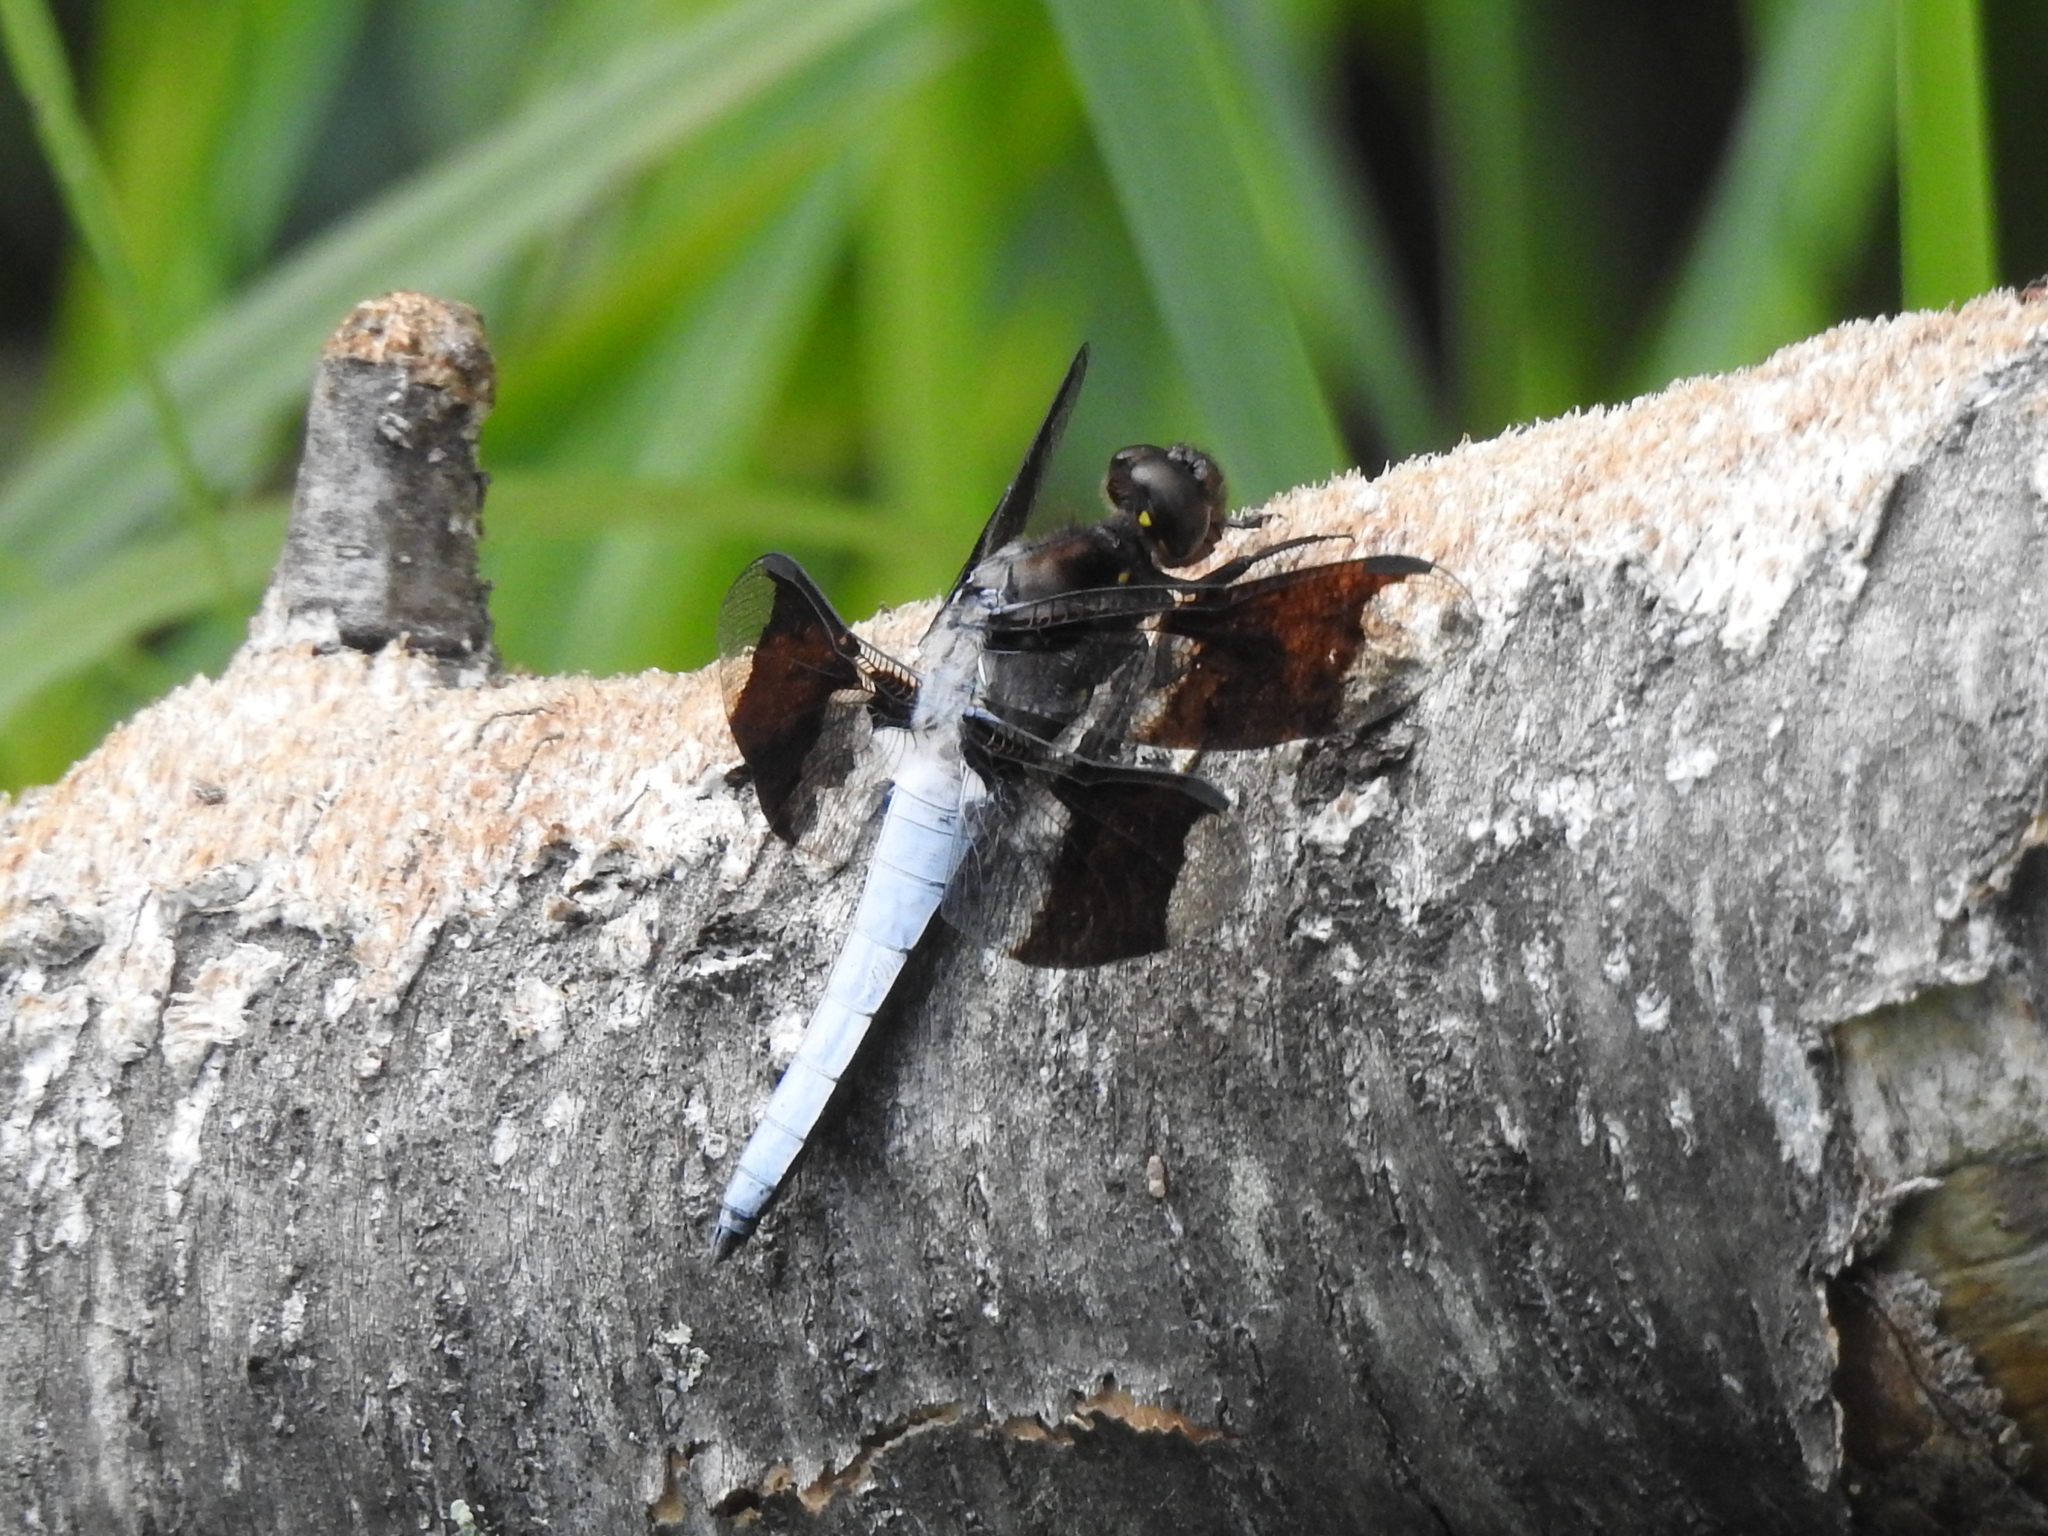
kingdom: Animalia
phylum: Arthropoda
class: Insecta
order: Odonata
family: Libellulidae
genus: Plathemis
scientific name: Plathemis lydia
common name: Common whitetail
